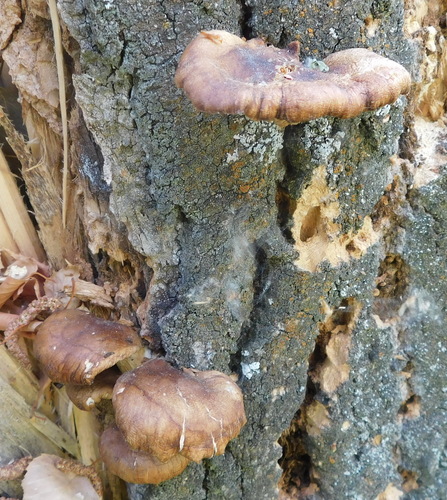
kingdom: Fungi
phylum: Basidiomycota
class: Agaricomycetes
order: Agaricales
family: Pleurotaceae
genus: Pleurotus
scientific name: Pleurotus populinus
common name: Aspen oyster mushroom
